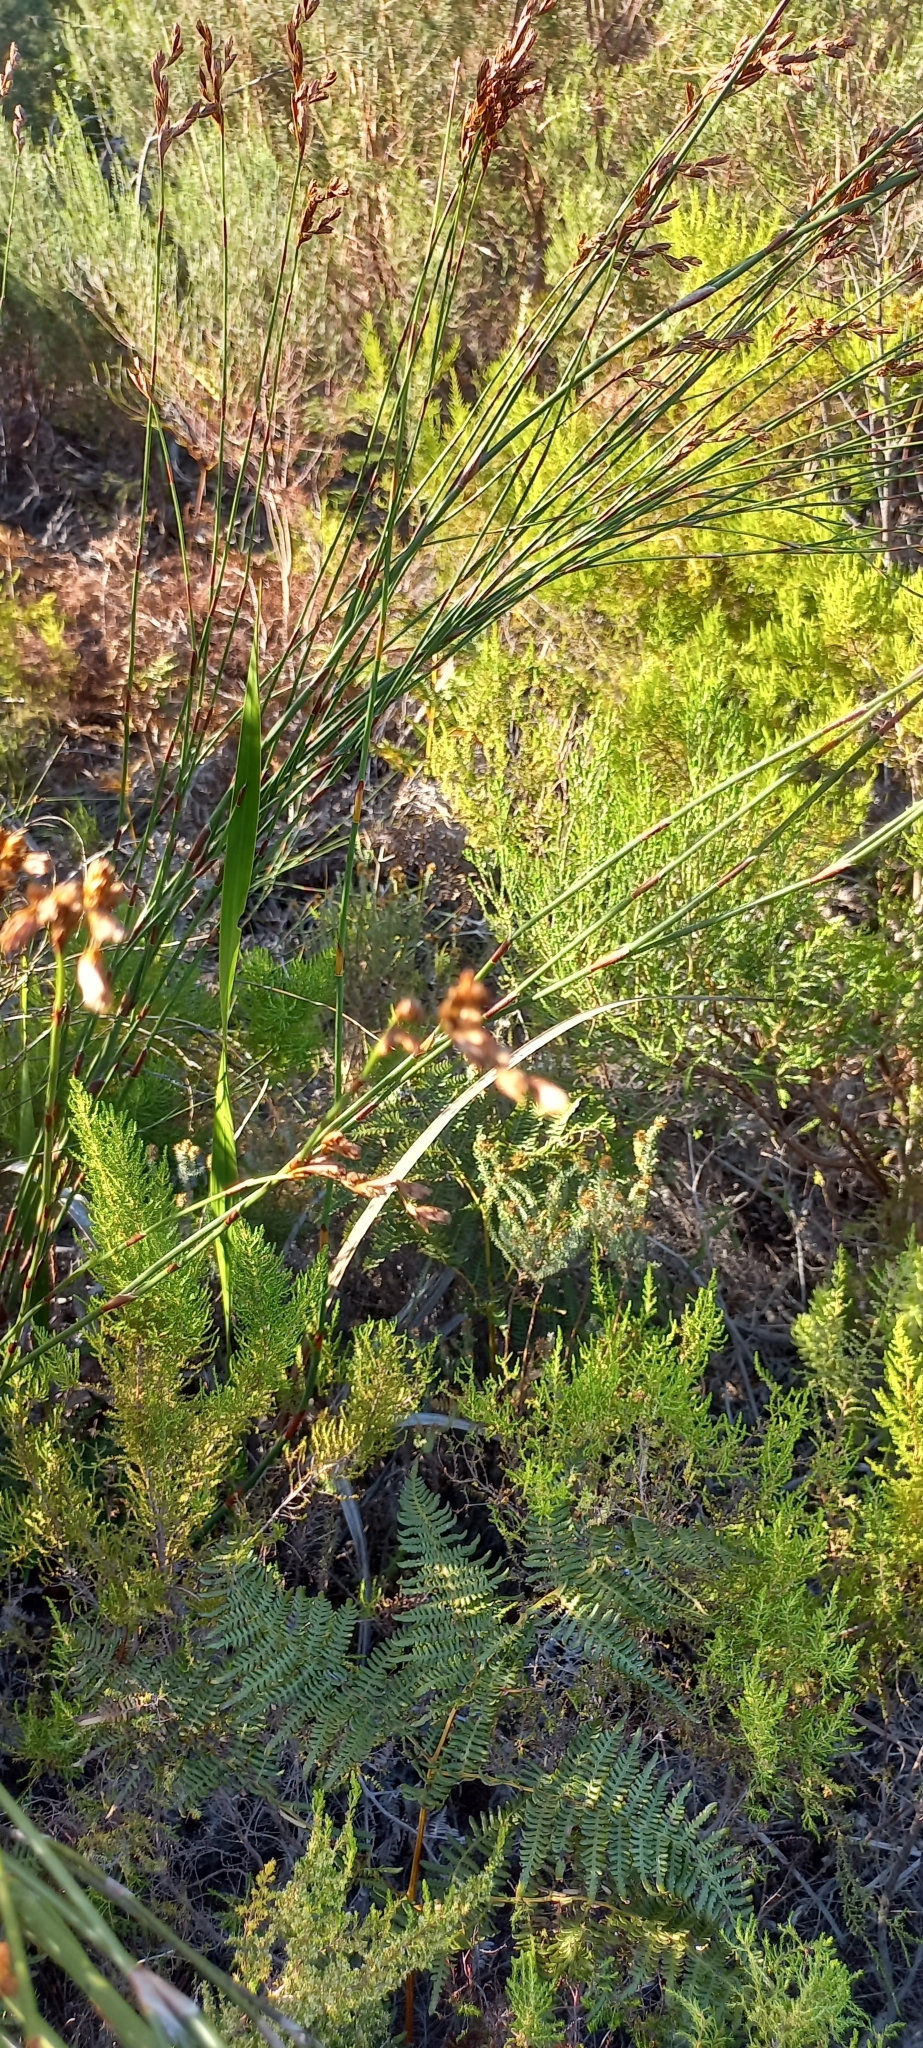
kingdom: Plantae
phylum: Tracheophyta
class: Liliopsida
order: Poales
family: Restionaceae
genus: Restio
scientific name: Restio dispar
